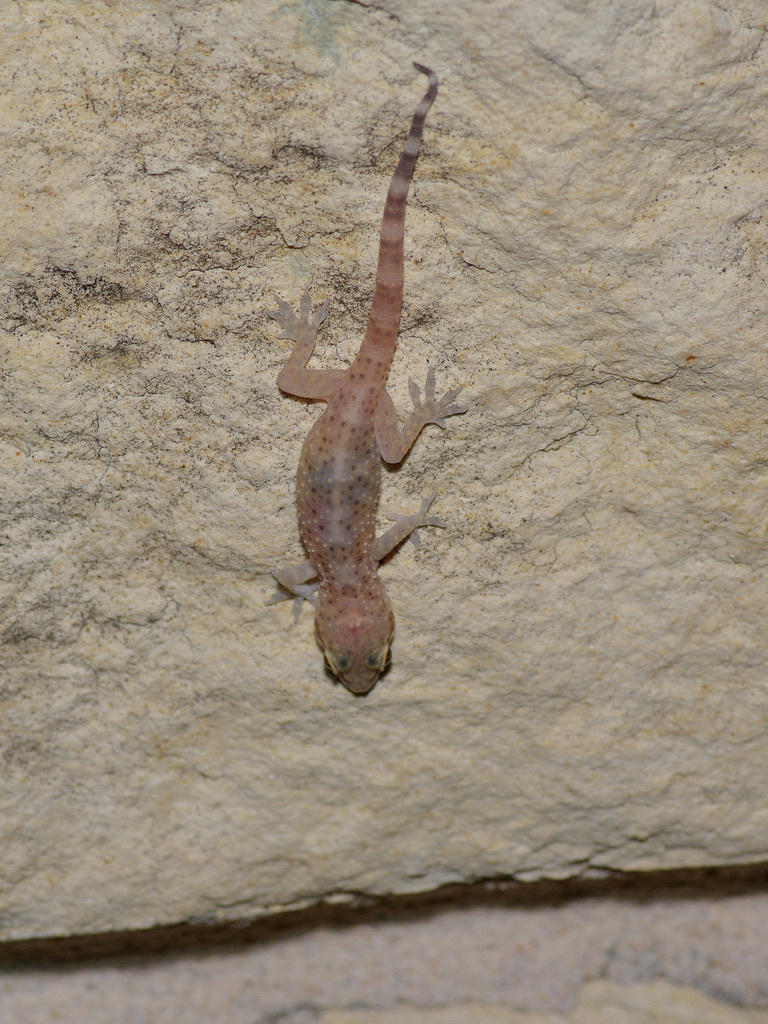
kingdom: Animalia
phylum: Chordata
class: Squamata
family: Gekkonidae
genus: Hemidactylus
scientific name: Hemidactylus turcicus
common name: Turkish gecko
